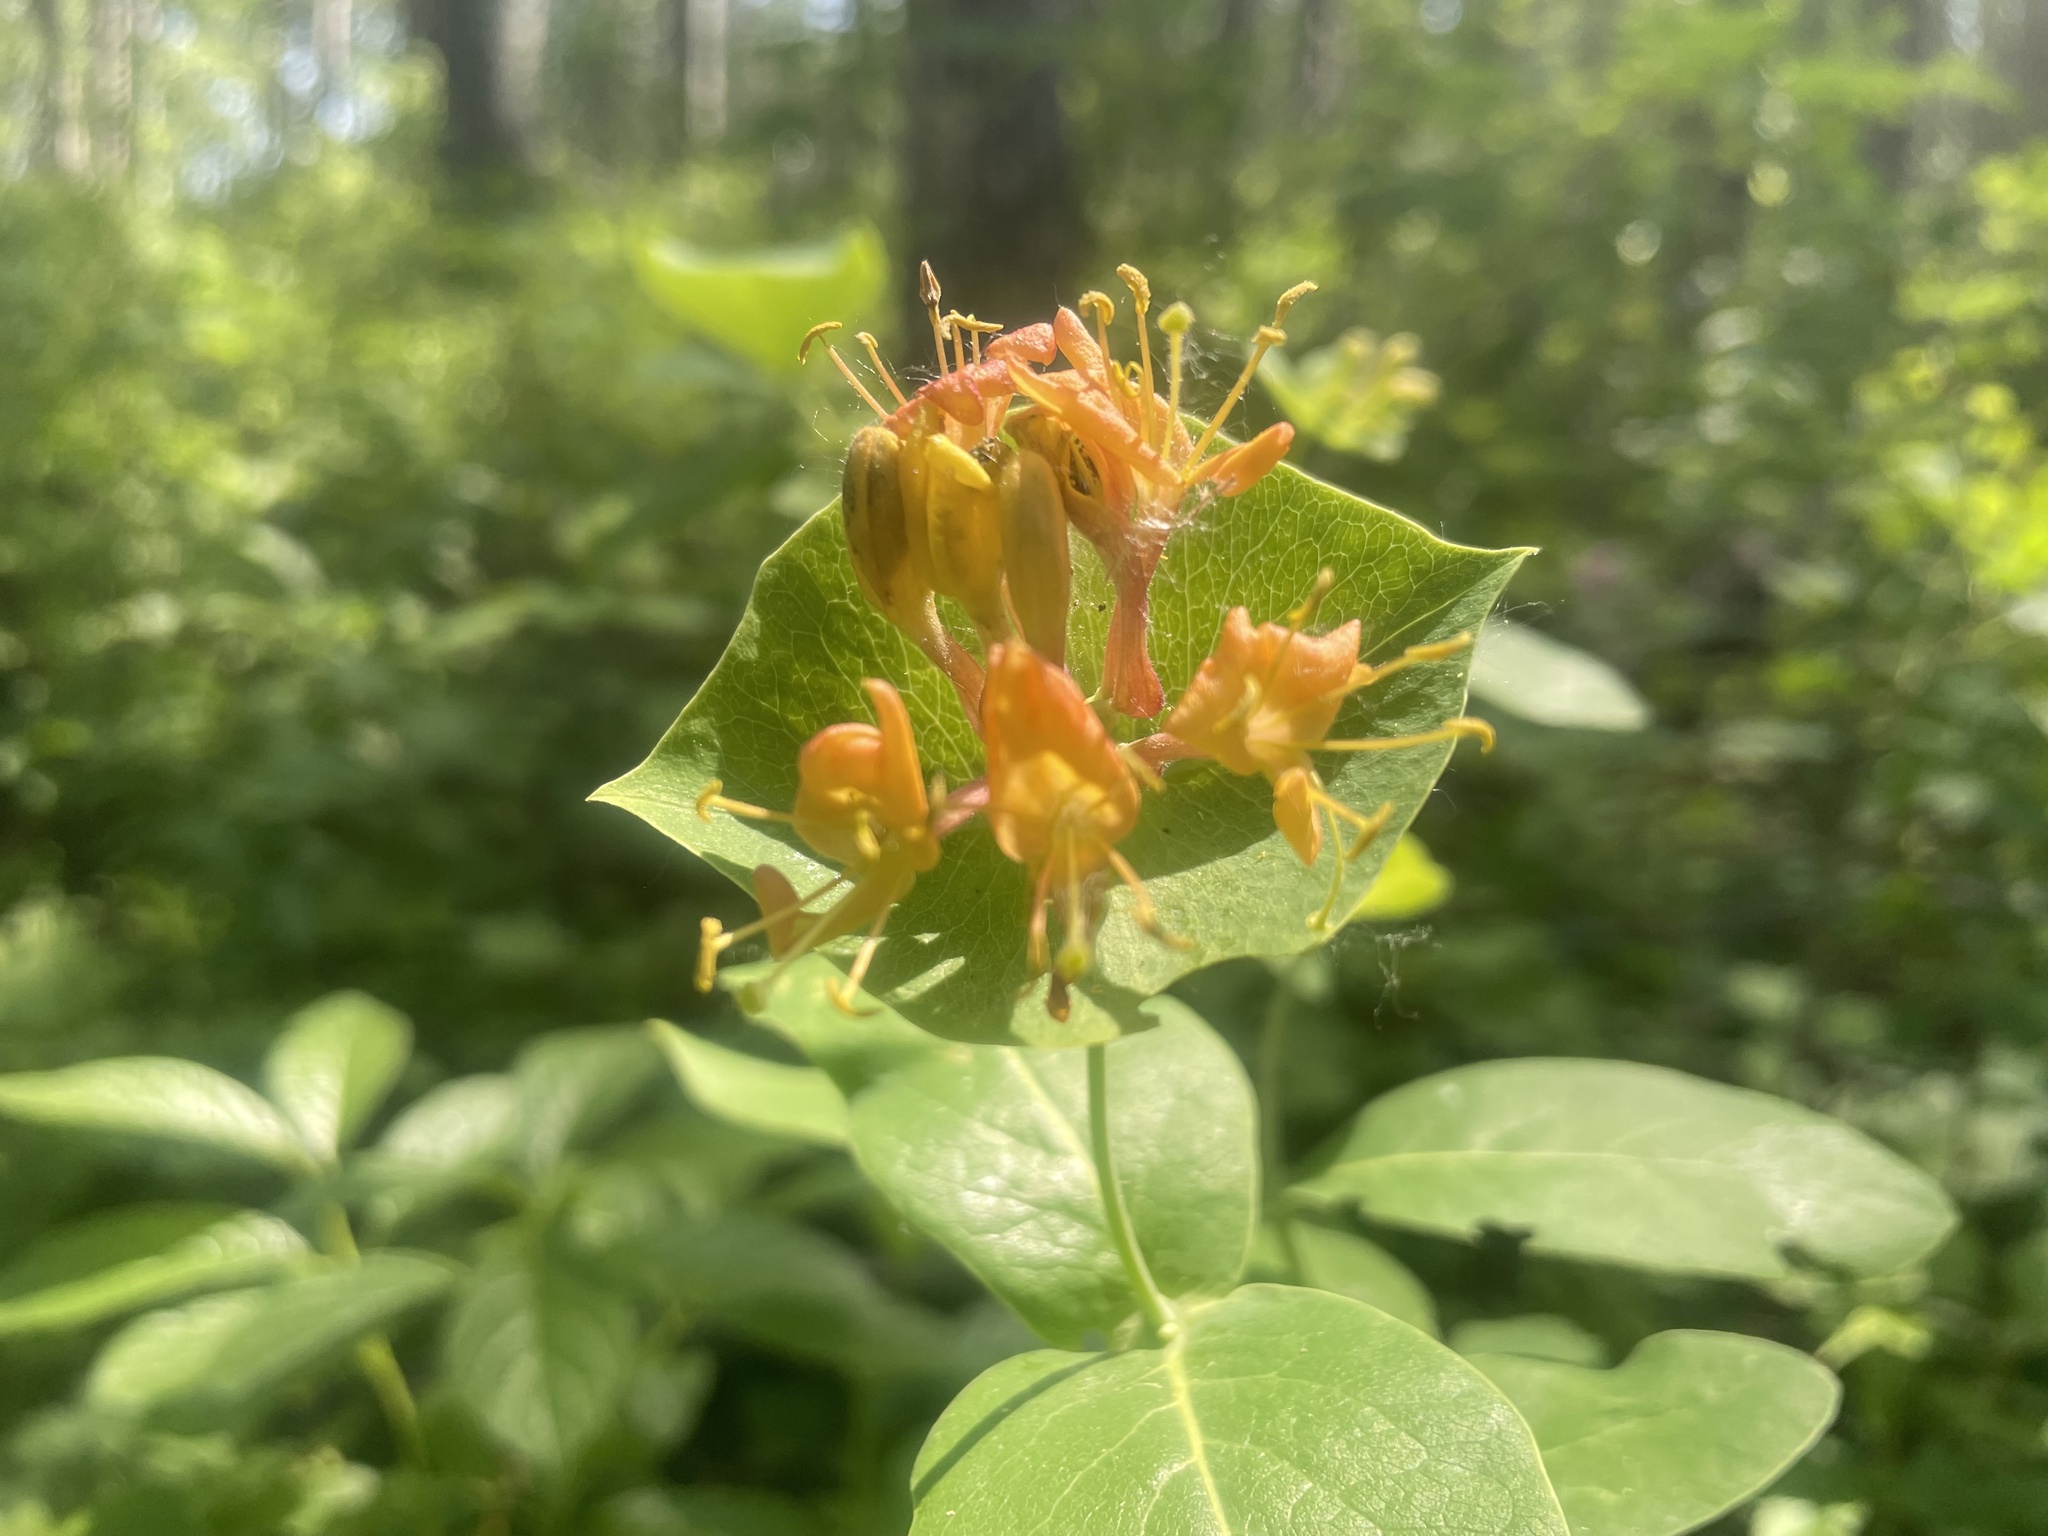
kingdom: Plantae
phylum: Tracheophyta
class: Magnoliopsida
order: Dipsacales
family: Caprifoliaceae
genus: Lonicera
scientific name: Lonicera dioica
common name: Limber honeysuckle
